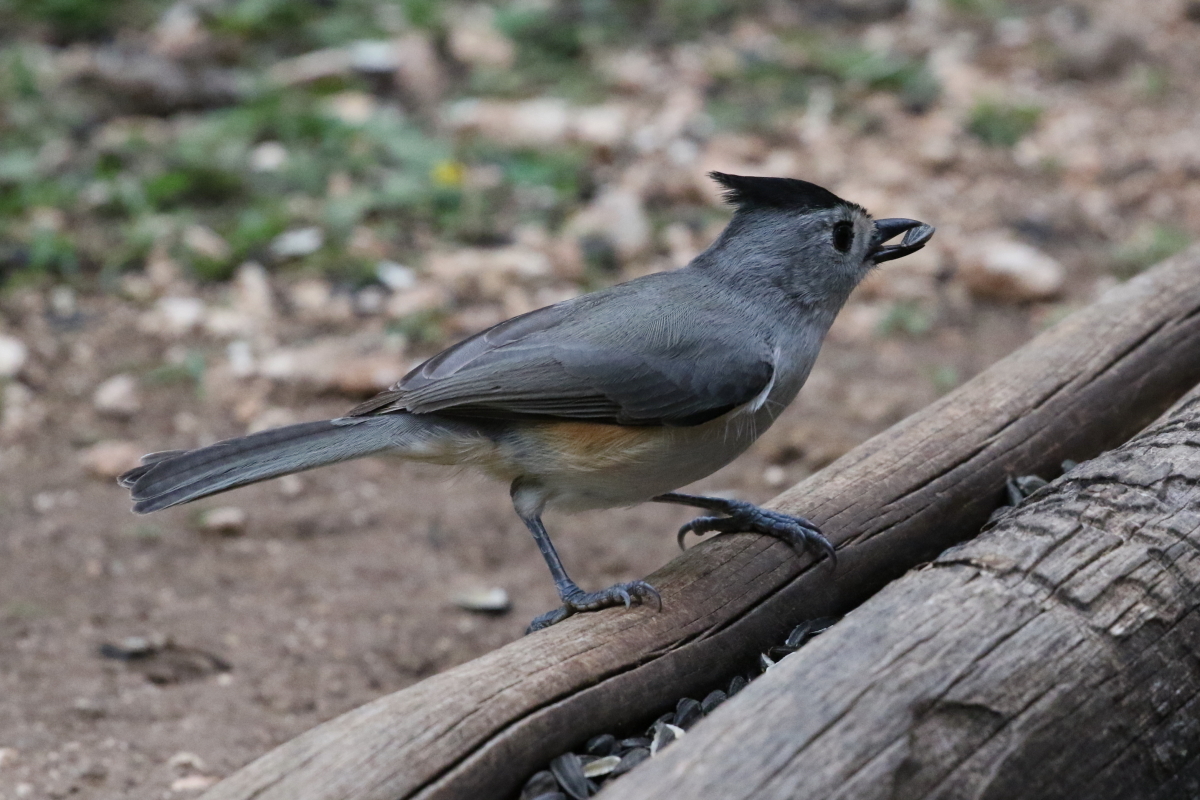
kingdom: Animalia
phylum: Chordata
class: Aves
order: Passeriformes
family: Paridae
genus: Baeolophus
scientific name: Baeolophus atricristatus
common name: Black-crested titmouse
